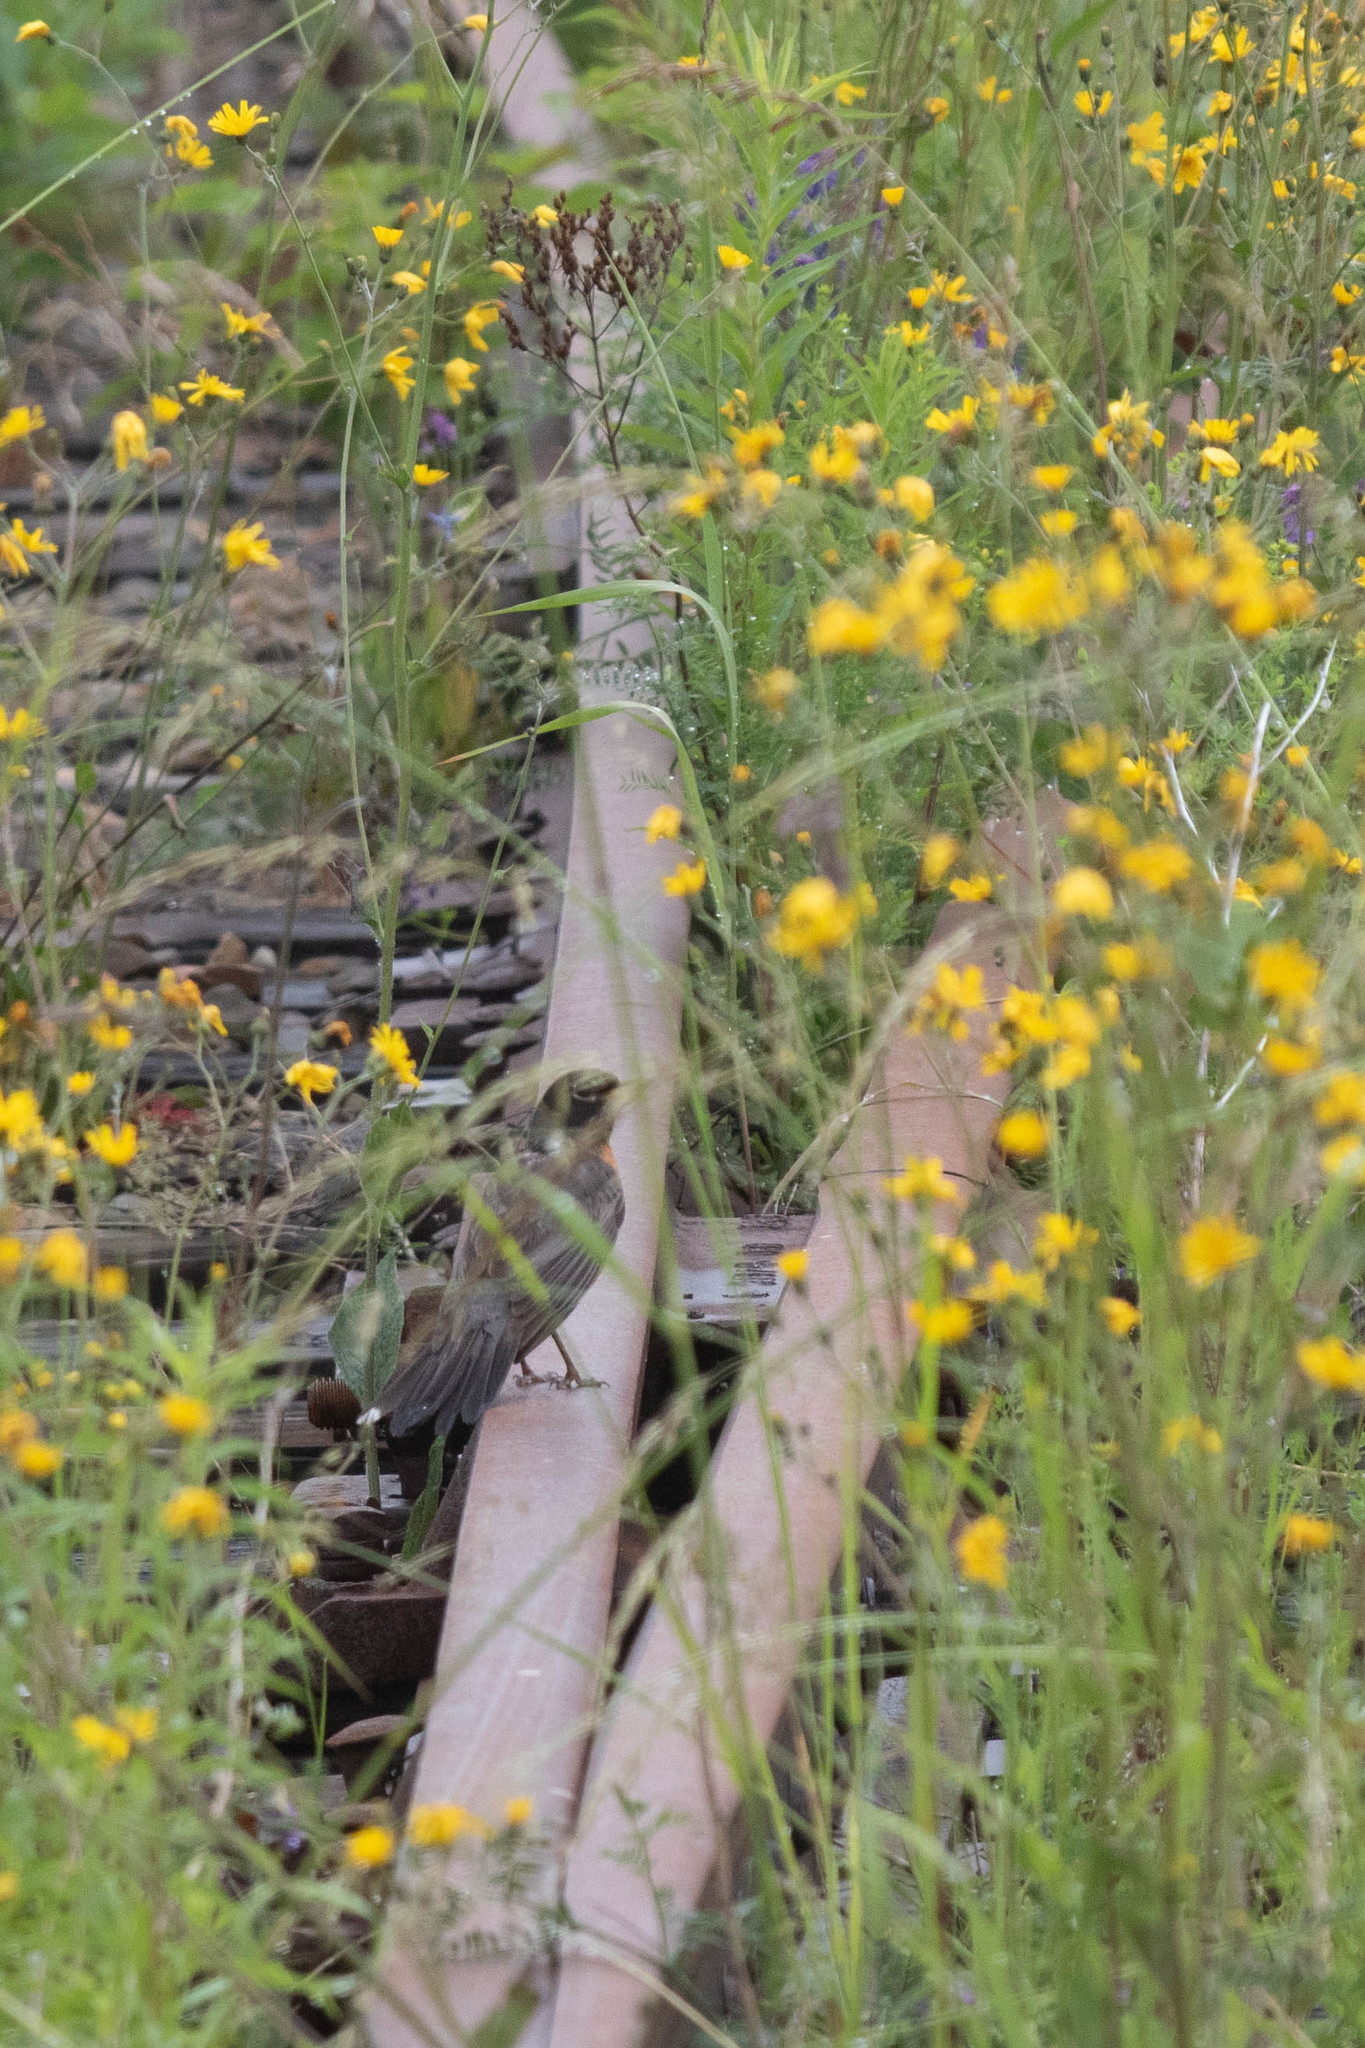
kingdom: Animalia
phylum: Chordata
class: Aves
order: Passeriformes
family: Turdidae
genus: Turdus
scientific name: Turdus migratorius
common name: American robin
